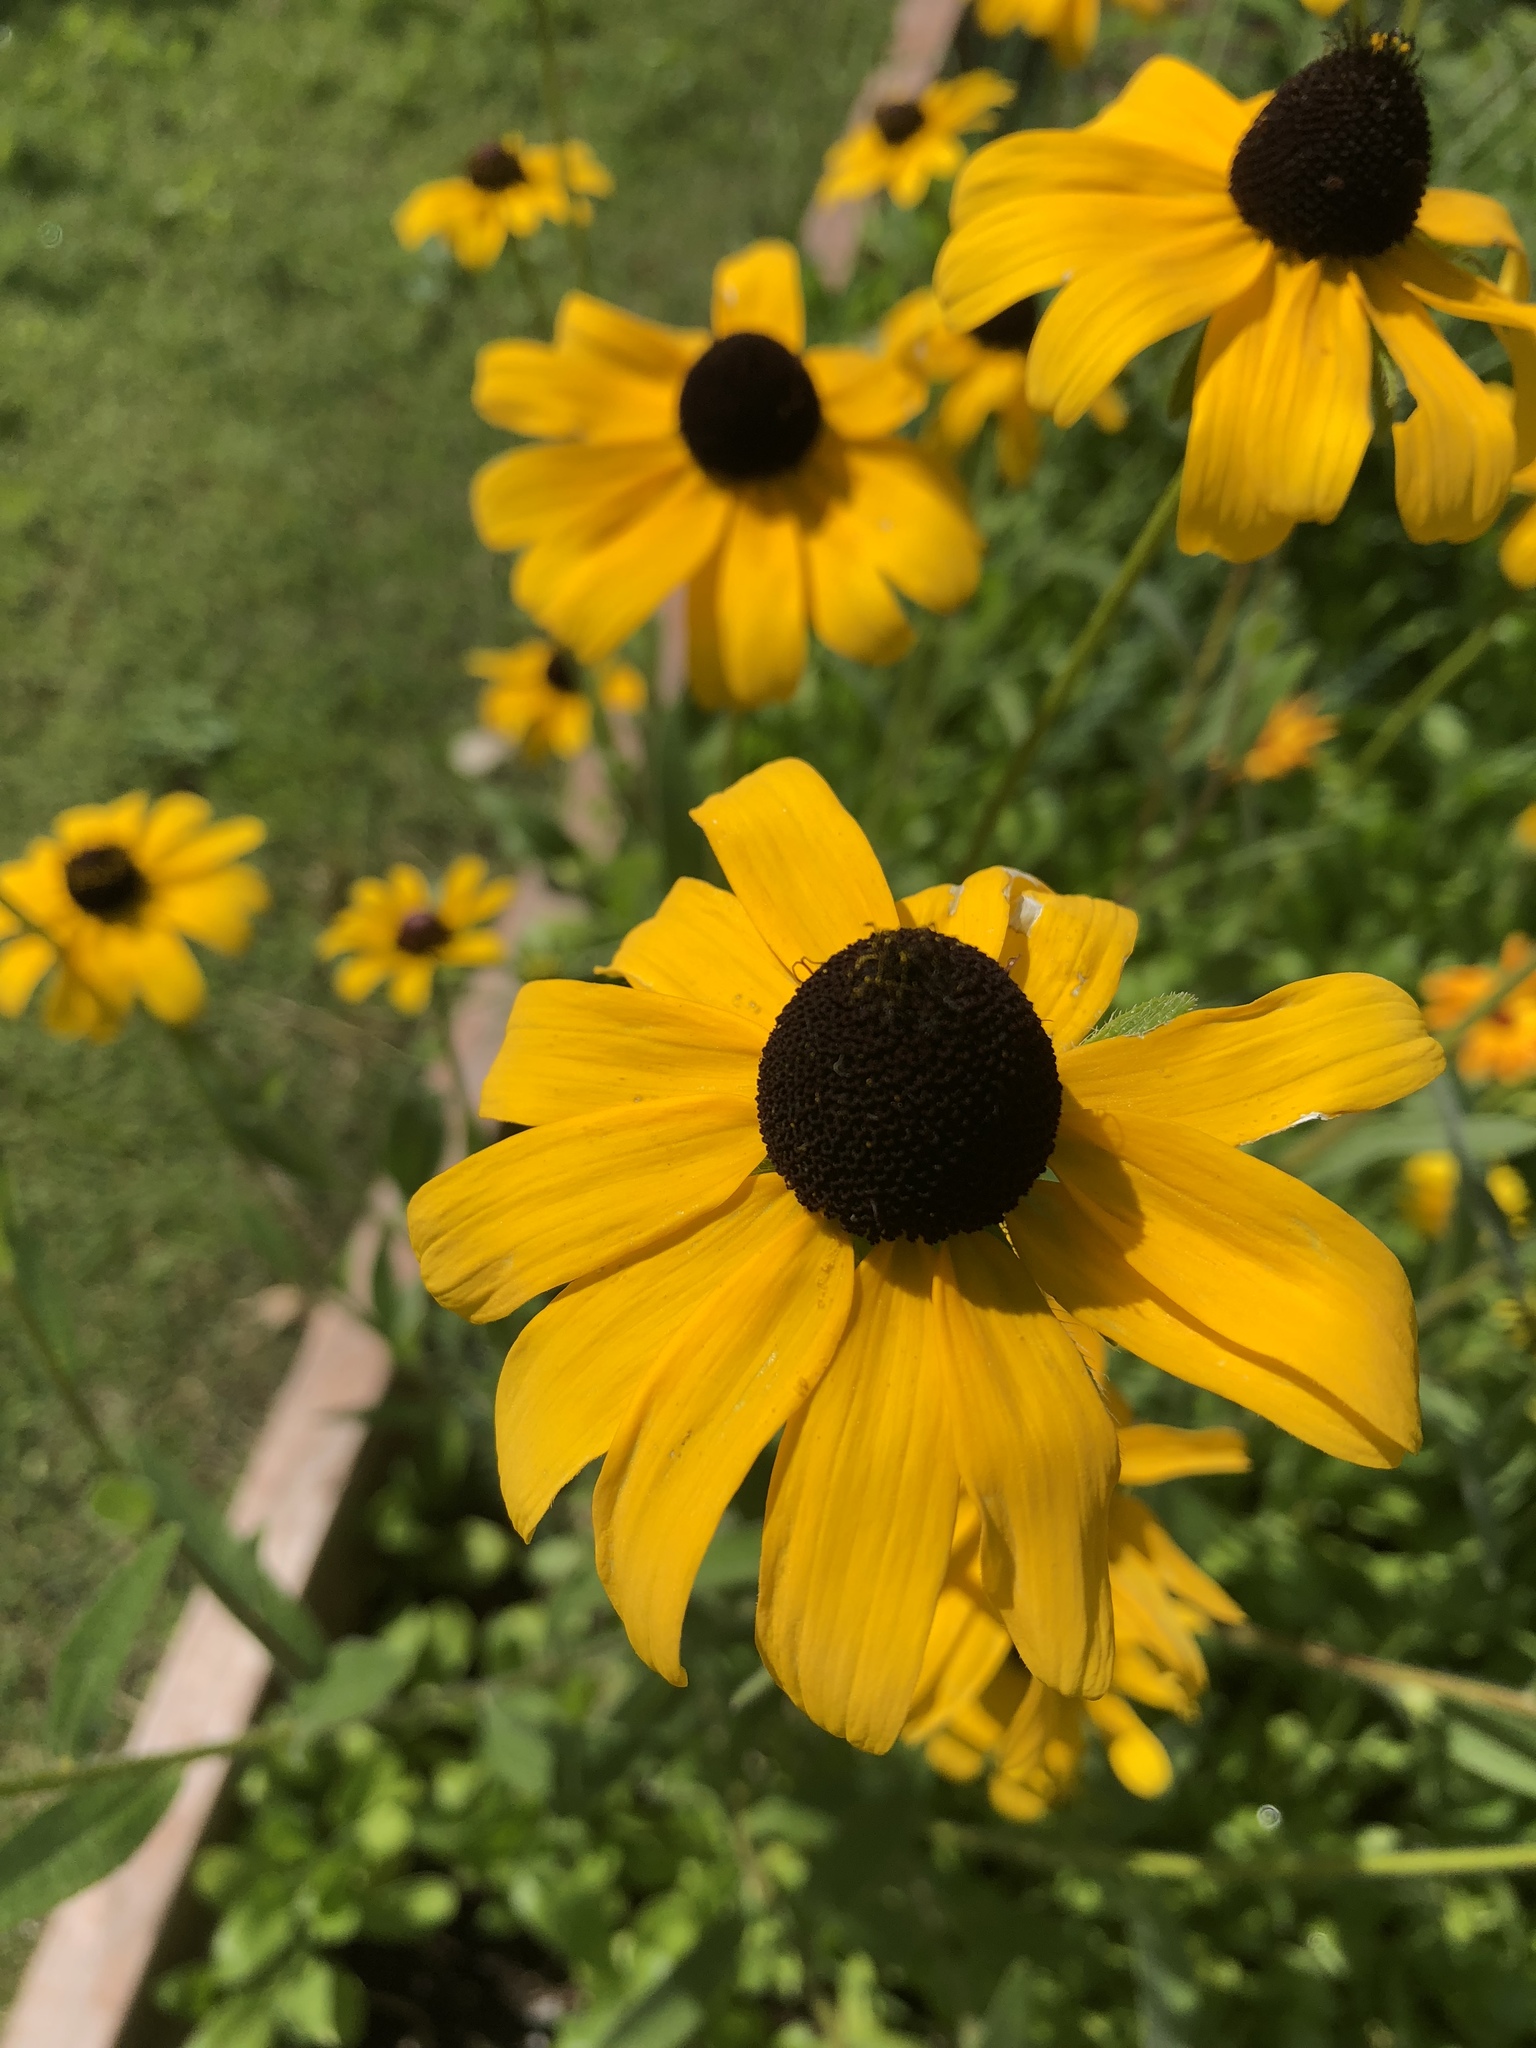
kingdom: Plantae
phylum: Tracheophyta
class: Magnoliopsida
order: Asterales
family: Asteraceae
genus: Rudbeckia
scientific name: Rudbeckia hirta
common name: Black-eyed-susan
